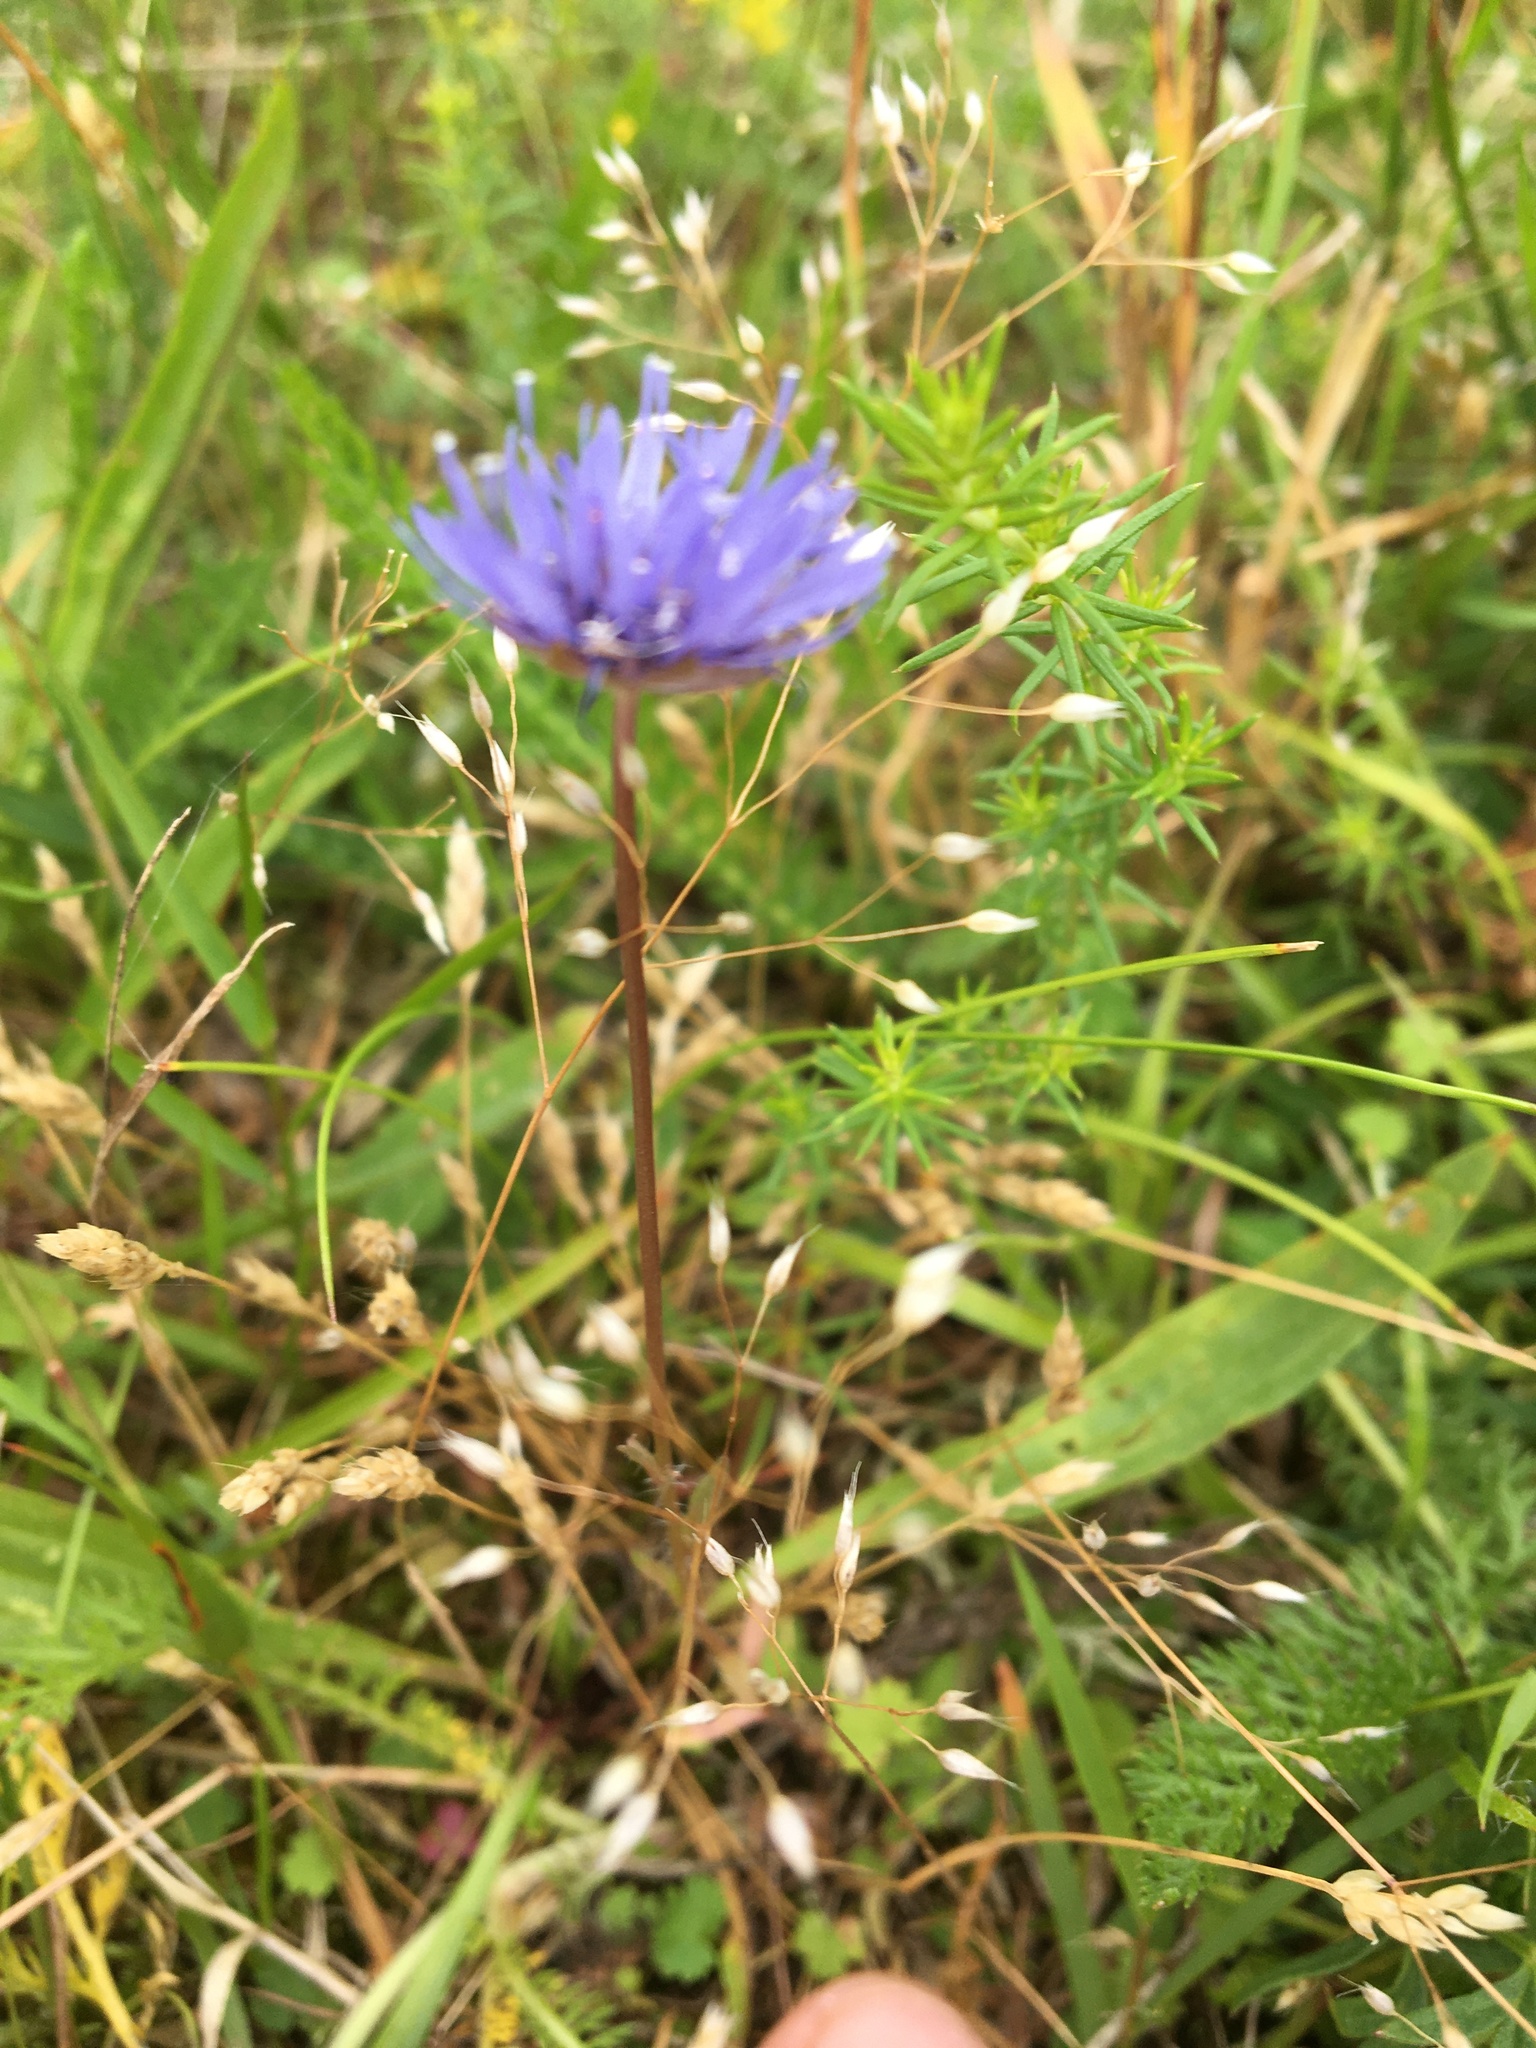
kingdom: Plantae
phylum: Tracheophyta
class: Magnoliopsida
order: Asterales
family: Campanulaceae
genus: Jasione
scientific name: Jasione montana
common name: Sheep's-bit
